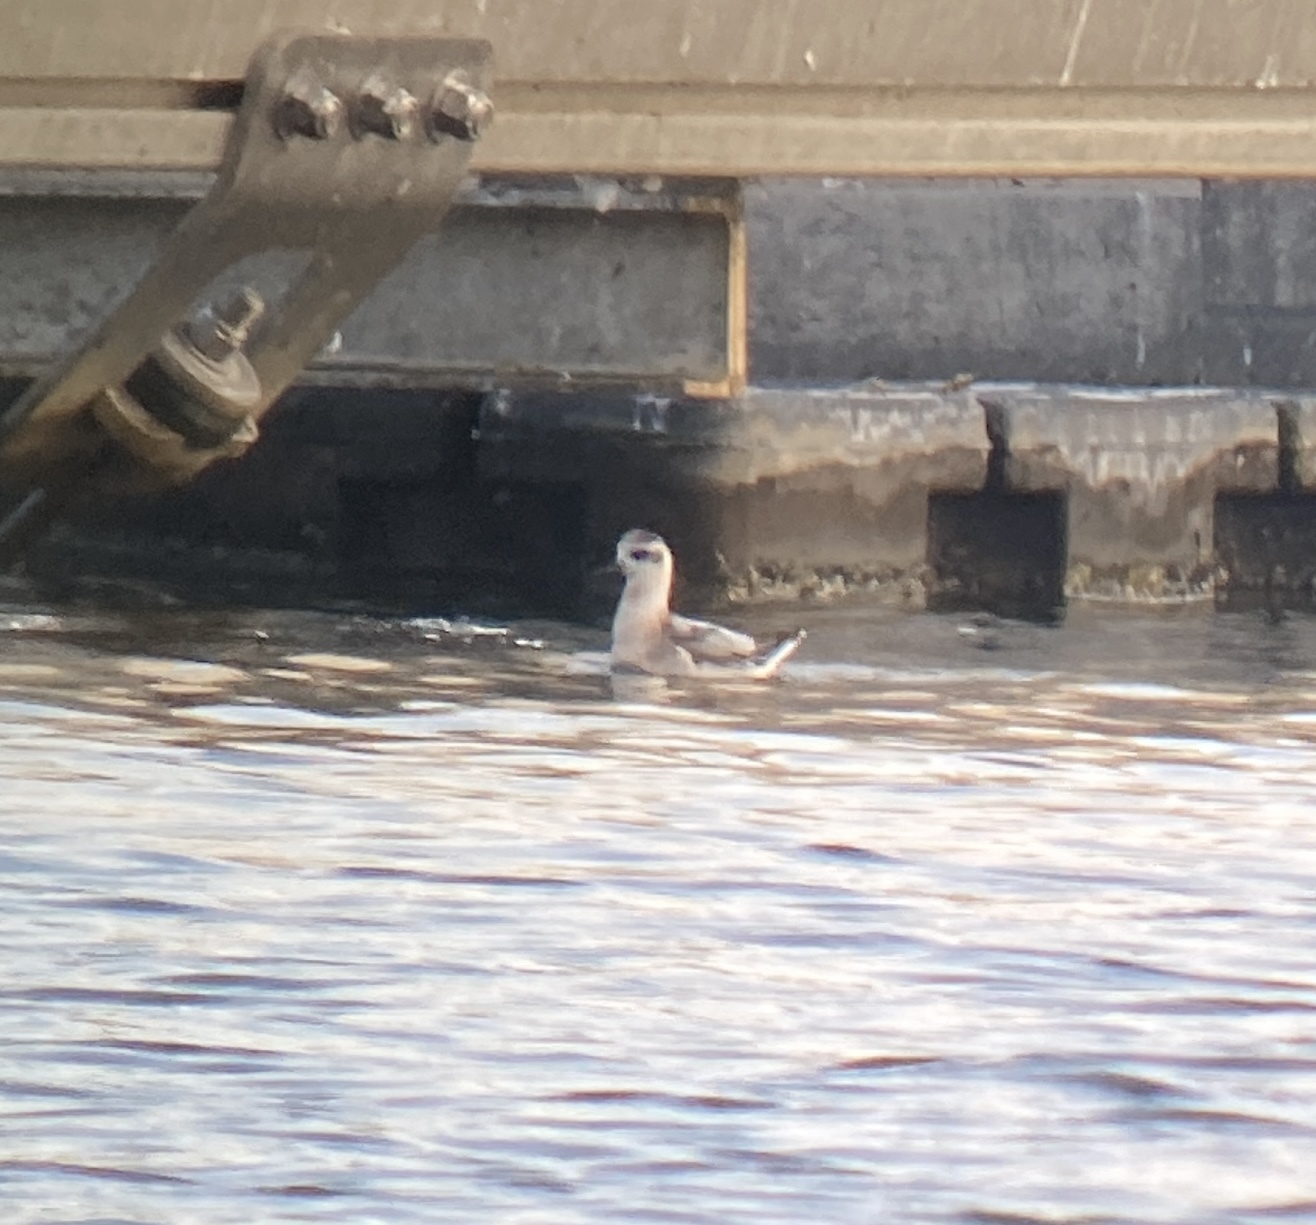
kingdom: Animalia
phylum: Chordata
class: Aves
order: Charadriiformes
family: Scolopacidae
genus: Phalaropus
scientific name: Phalaropus fulicarius
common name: Red phalarope
